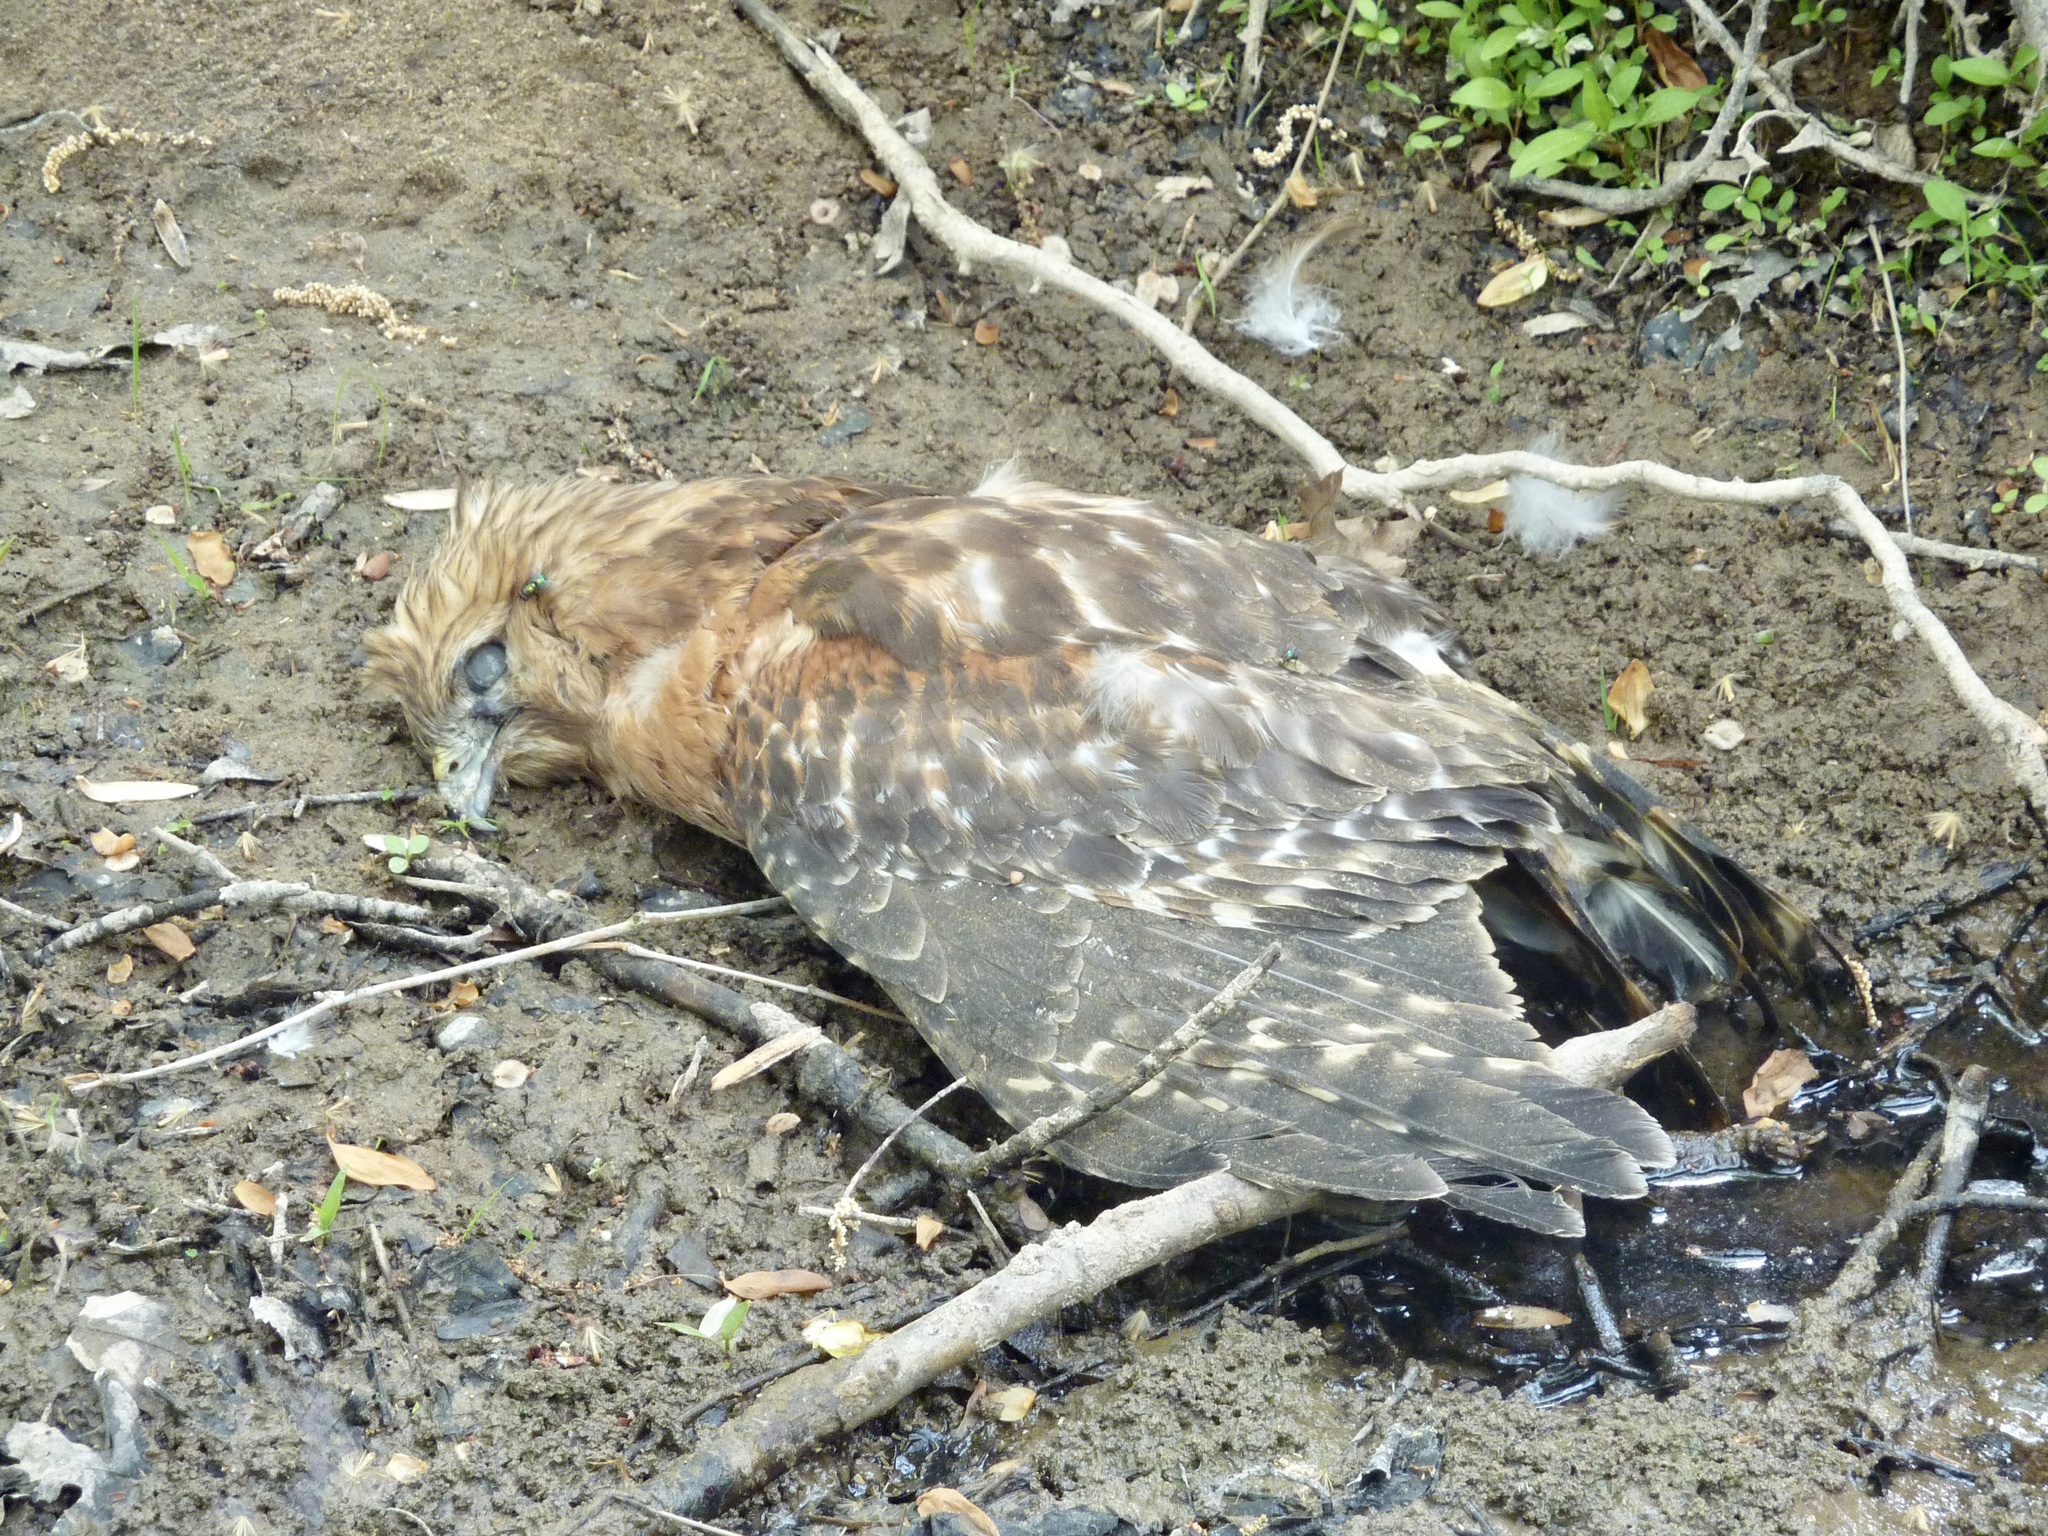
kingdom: Animalia
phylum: Chordata
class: Aves
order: Accipitriformes
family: Accipitridae
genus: Buteo
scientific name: Buteo lineatus
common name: Red-shouldered hawk
